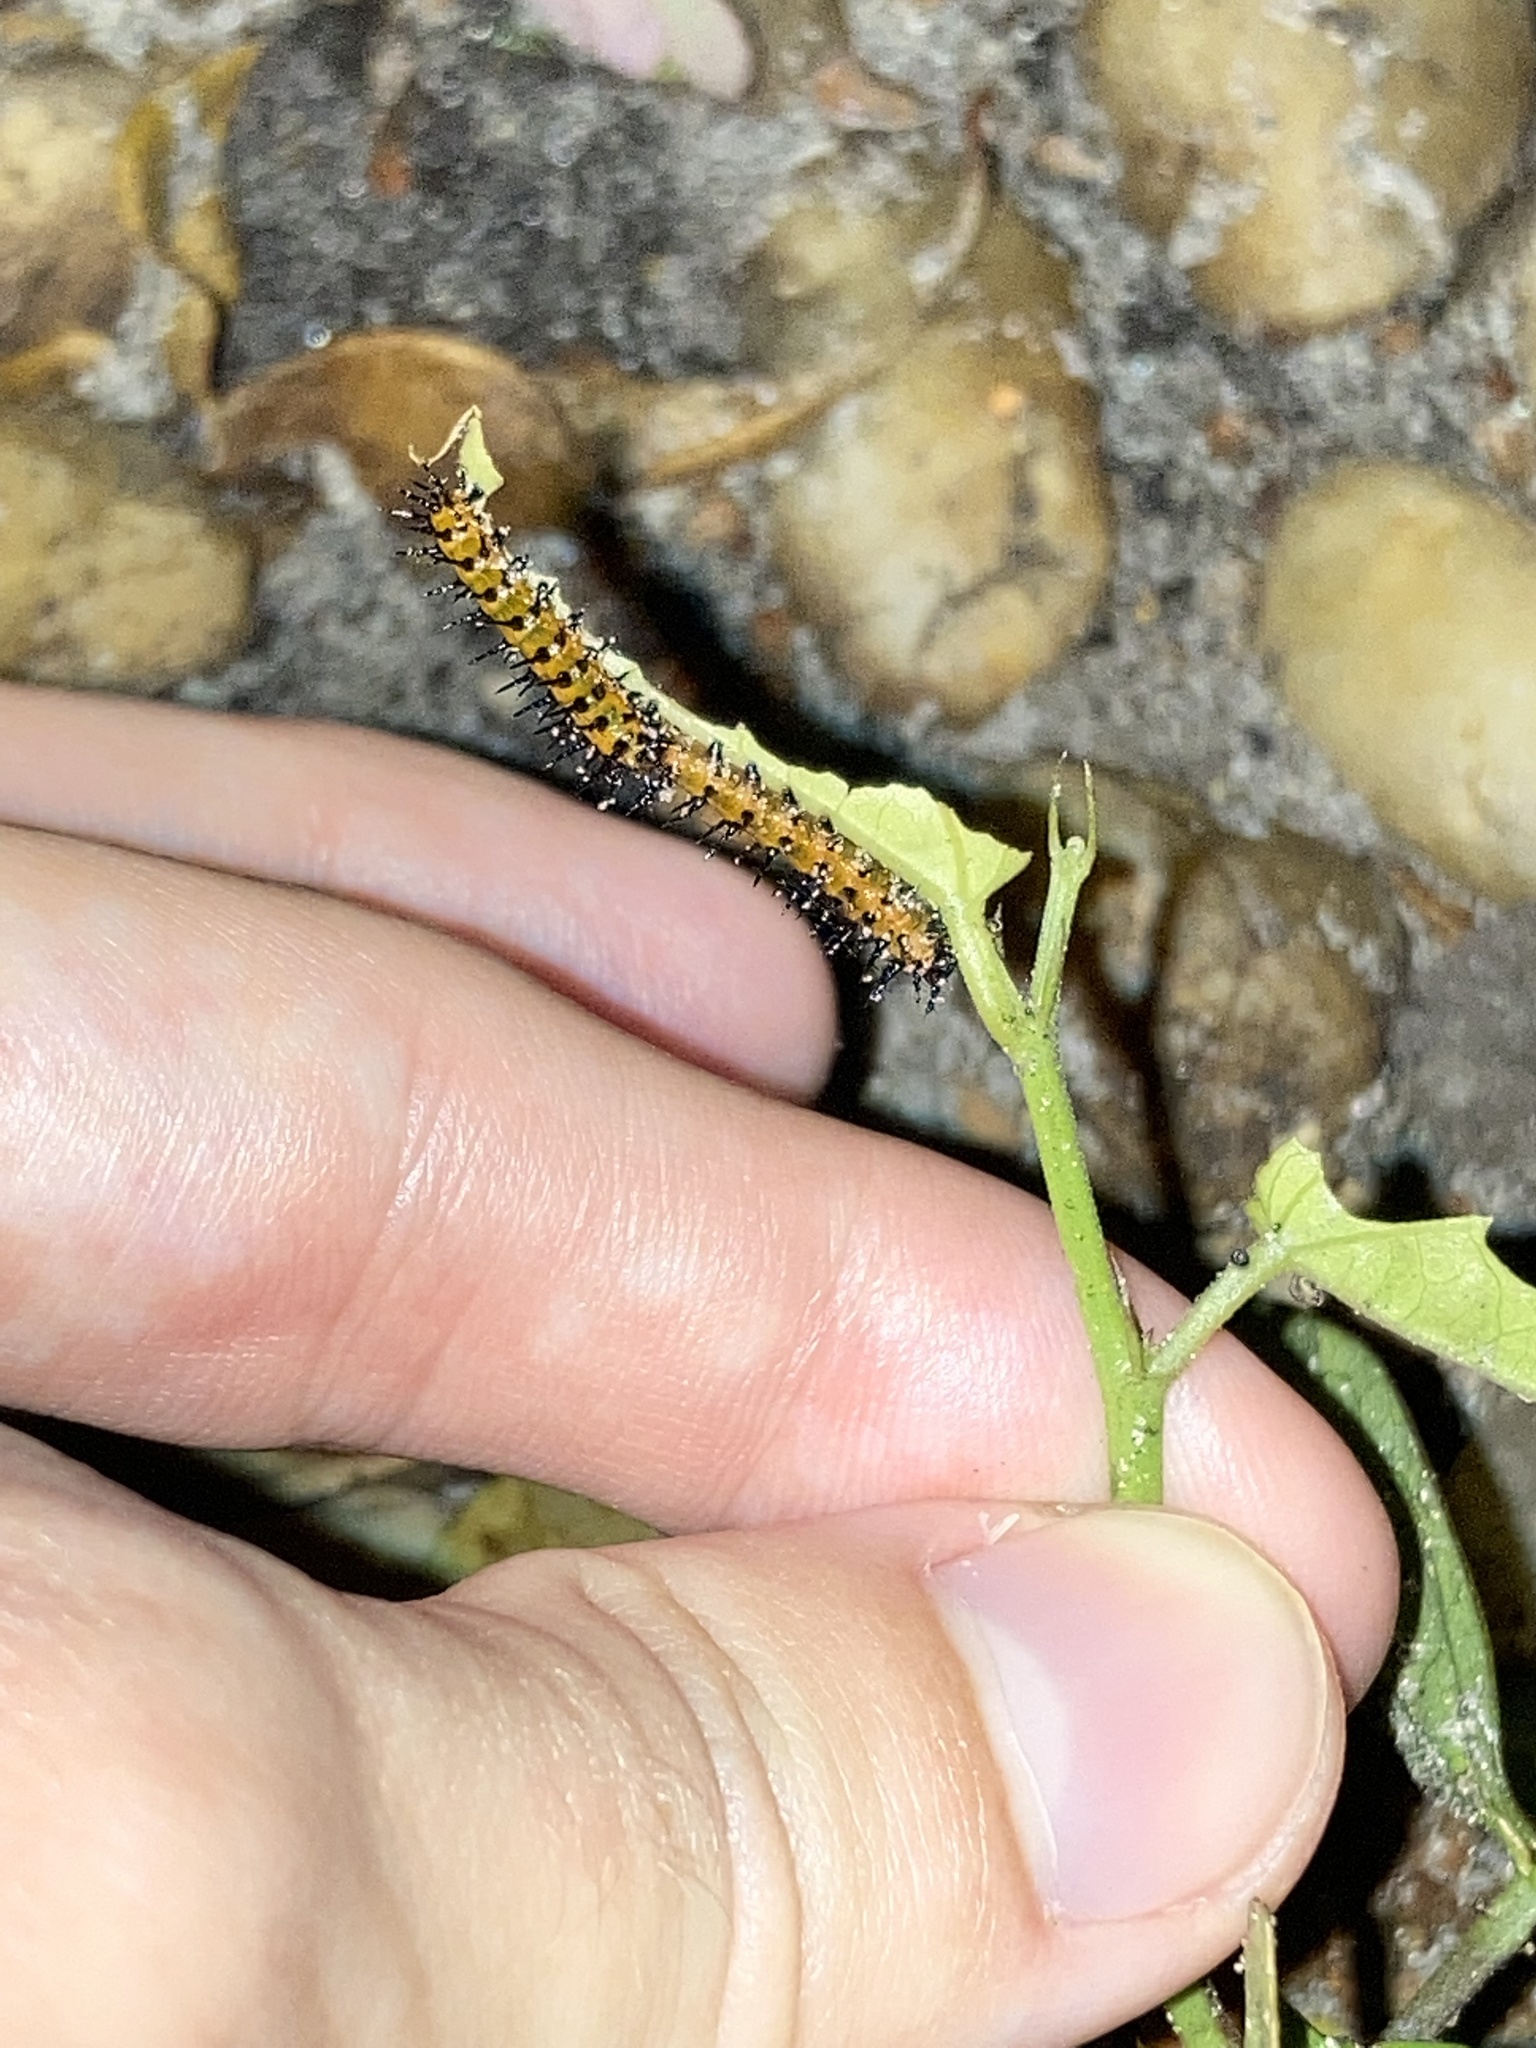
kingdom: Animalia
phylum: Arthropoda
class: Insecta
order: Lepidoptera
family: Nymphalidae
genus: Dione
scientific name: Dione vanillae
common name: Gulf fritillary
